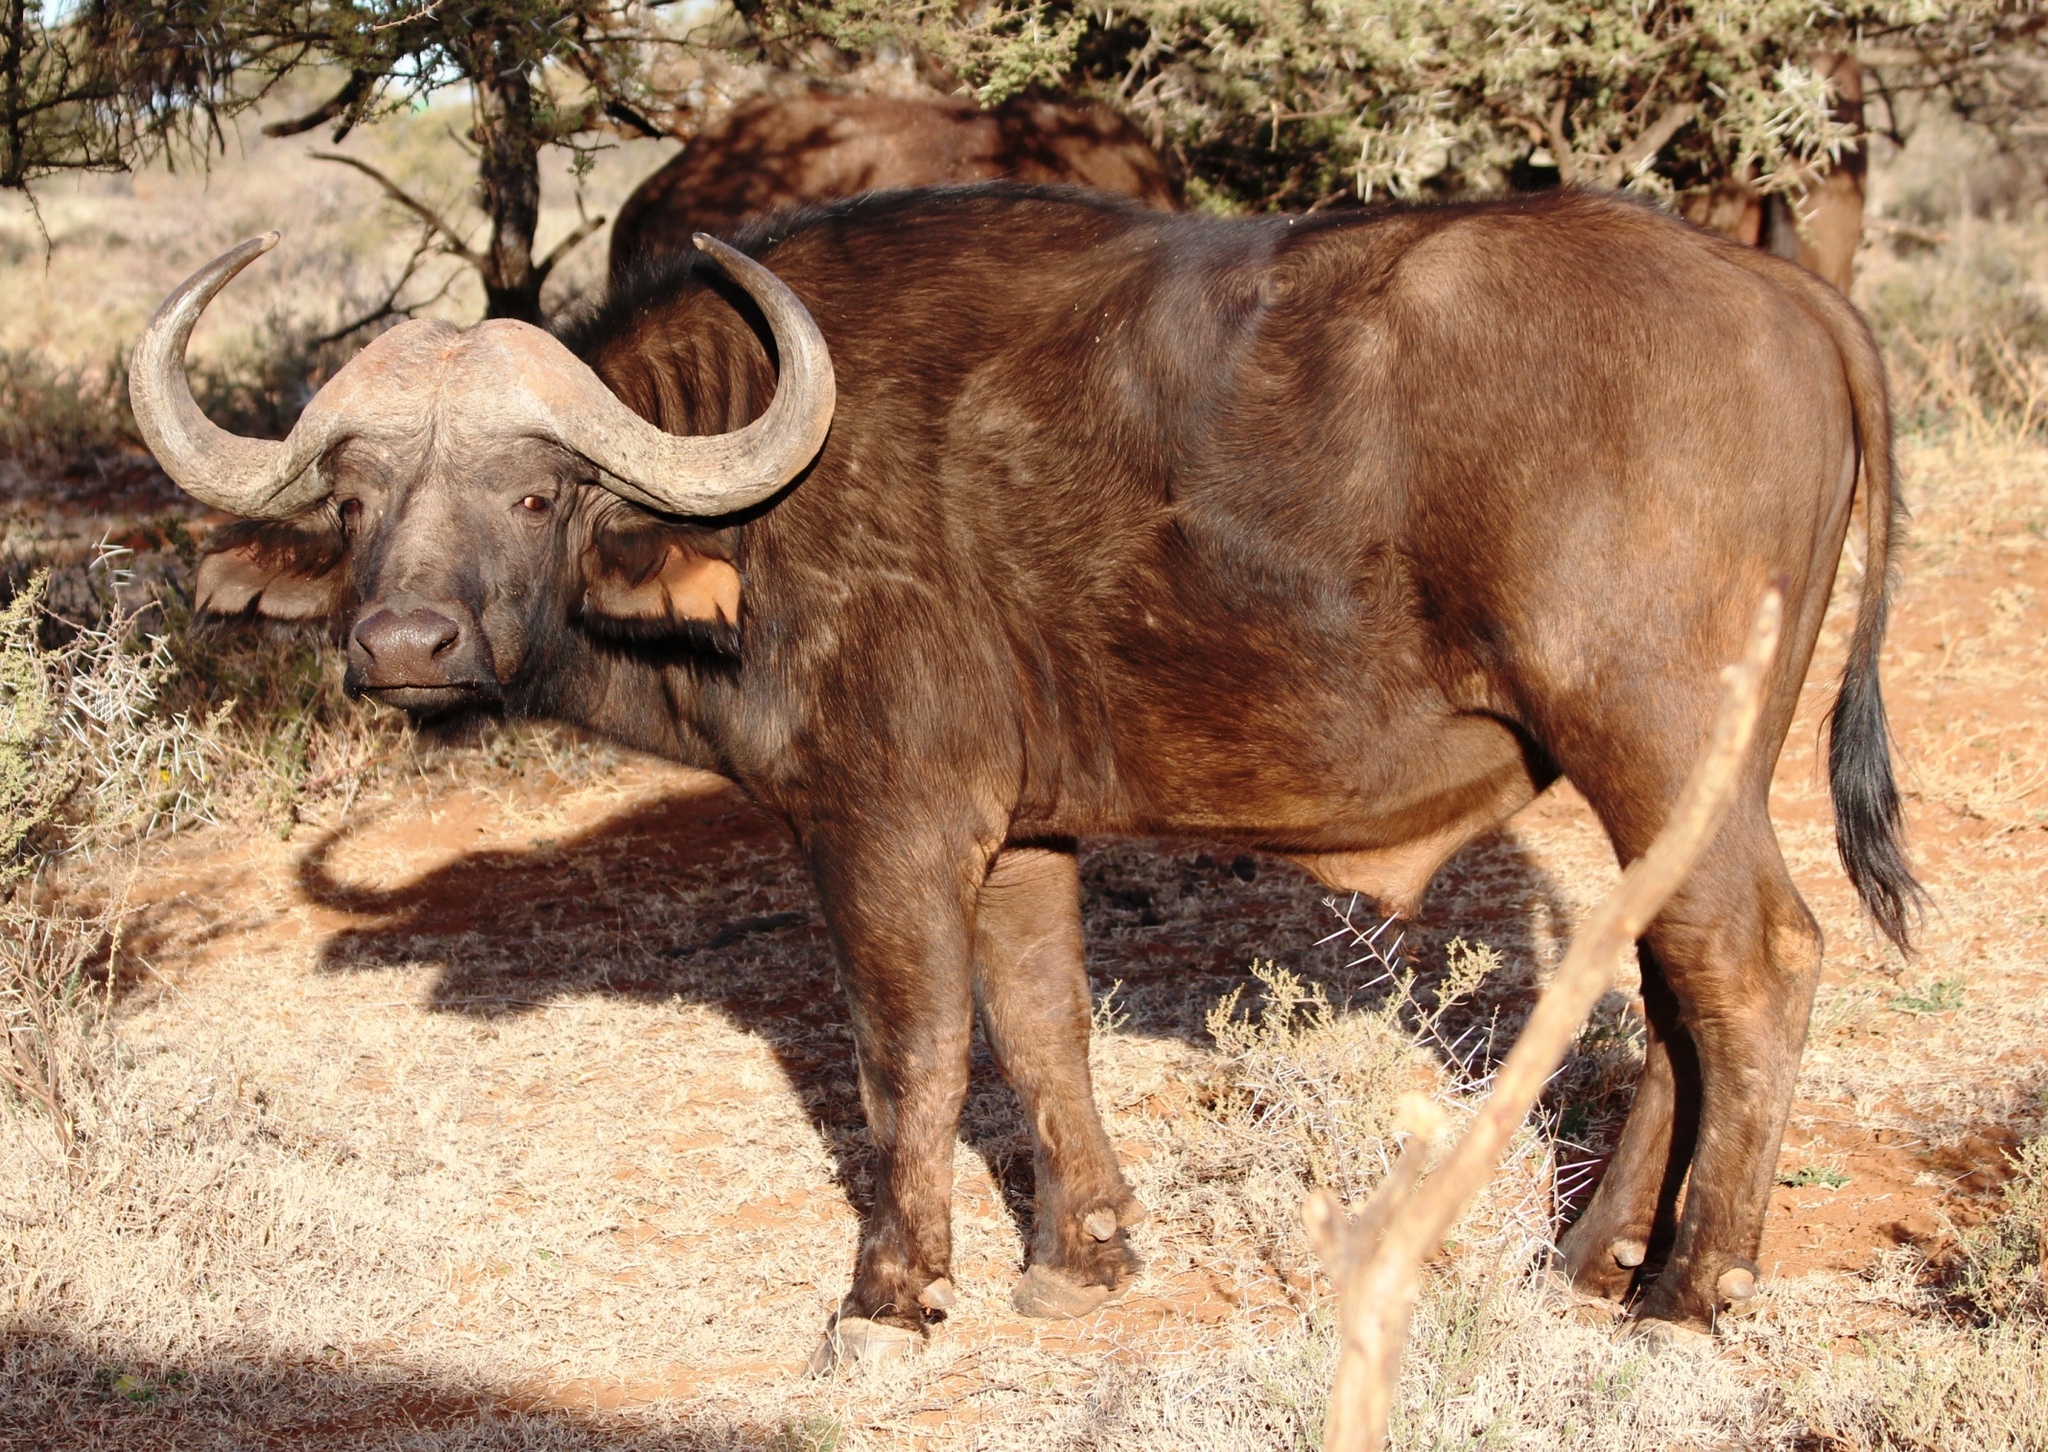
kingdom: Animalia
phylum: Chordata
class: Mammalia
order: Artiodactyla
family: Bovidae
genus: Syncerus
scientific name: Syncerus caffer
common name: African buffalo
